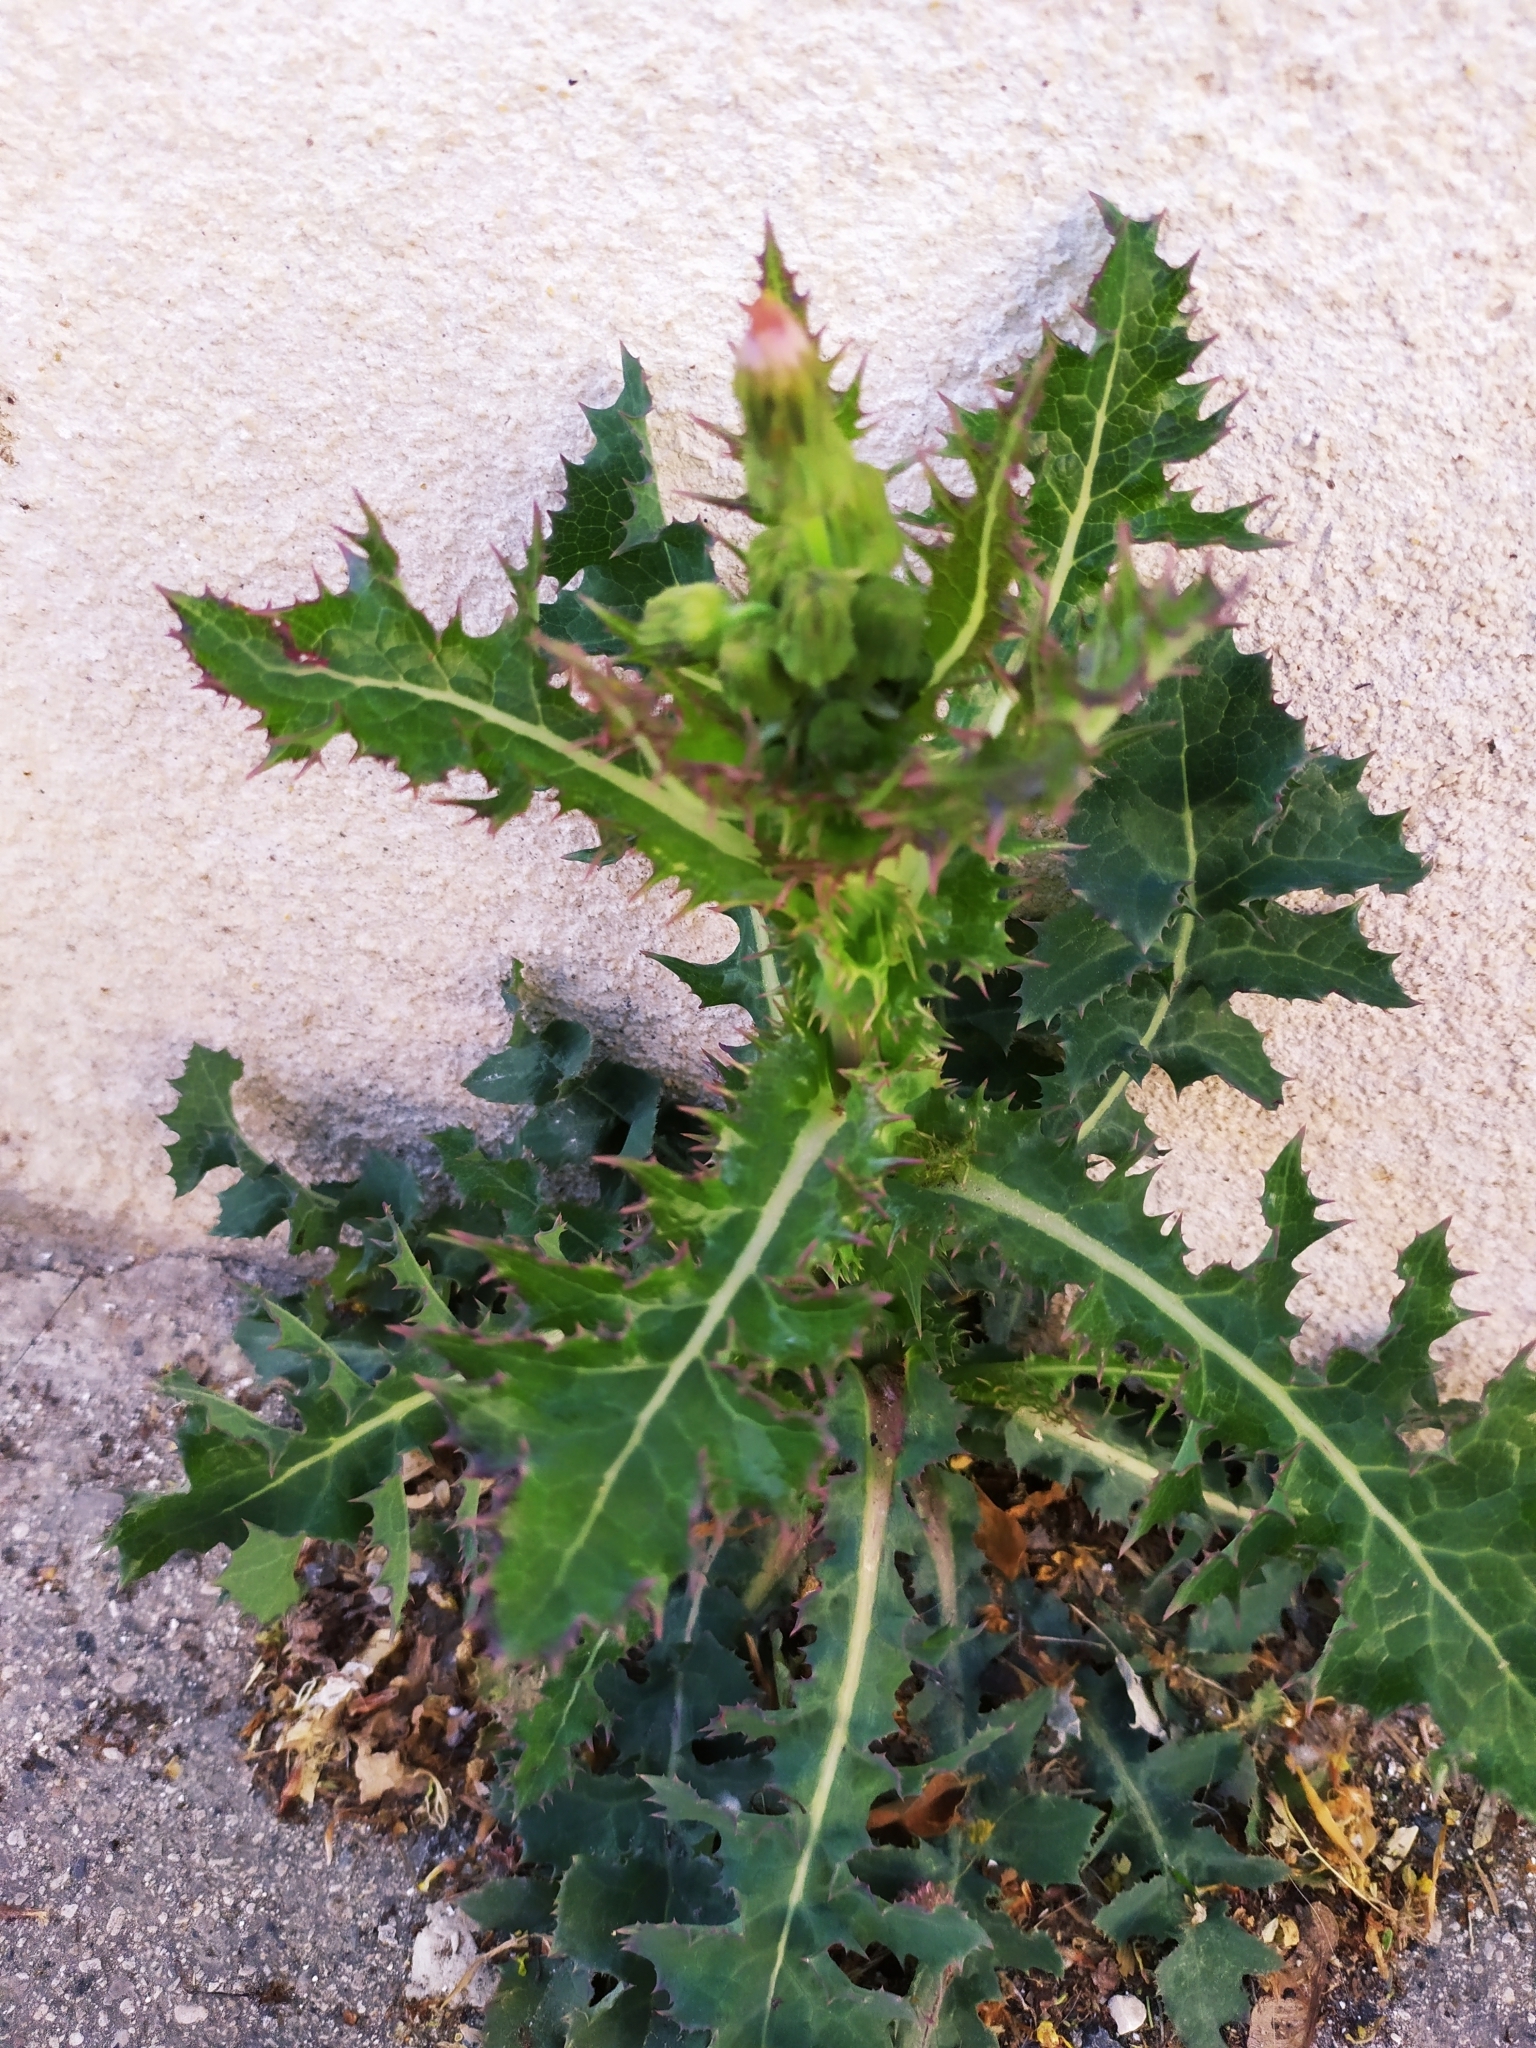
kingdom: Plantae
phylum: Tracheophyta
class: Magnoliopsida
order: Asterales
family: Asteraceae
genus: Sonchus
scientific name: Sonchus asper
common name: Prickly sow-thistle
